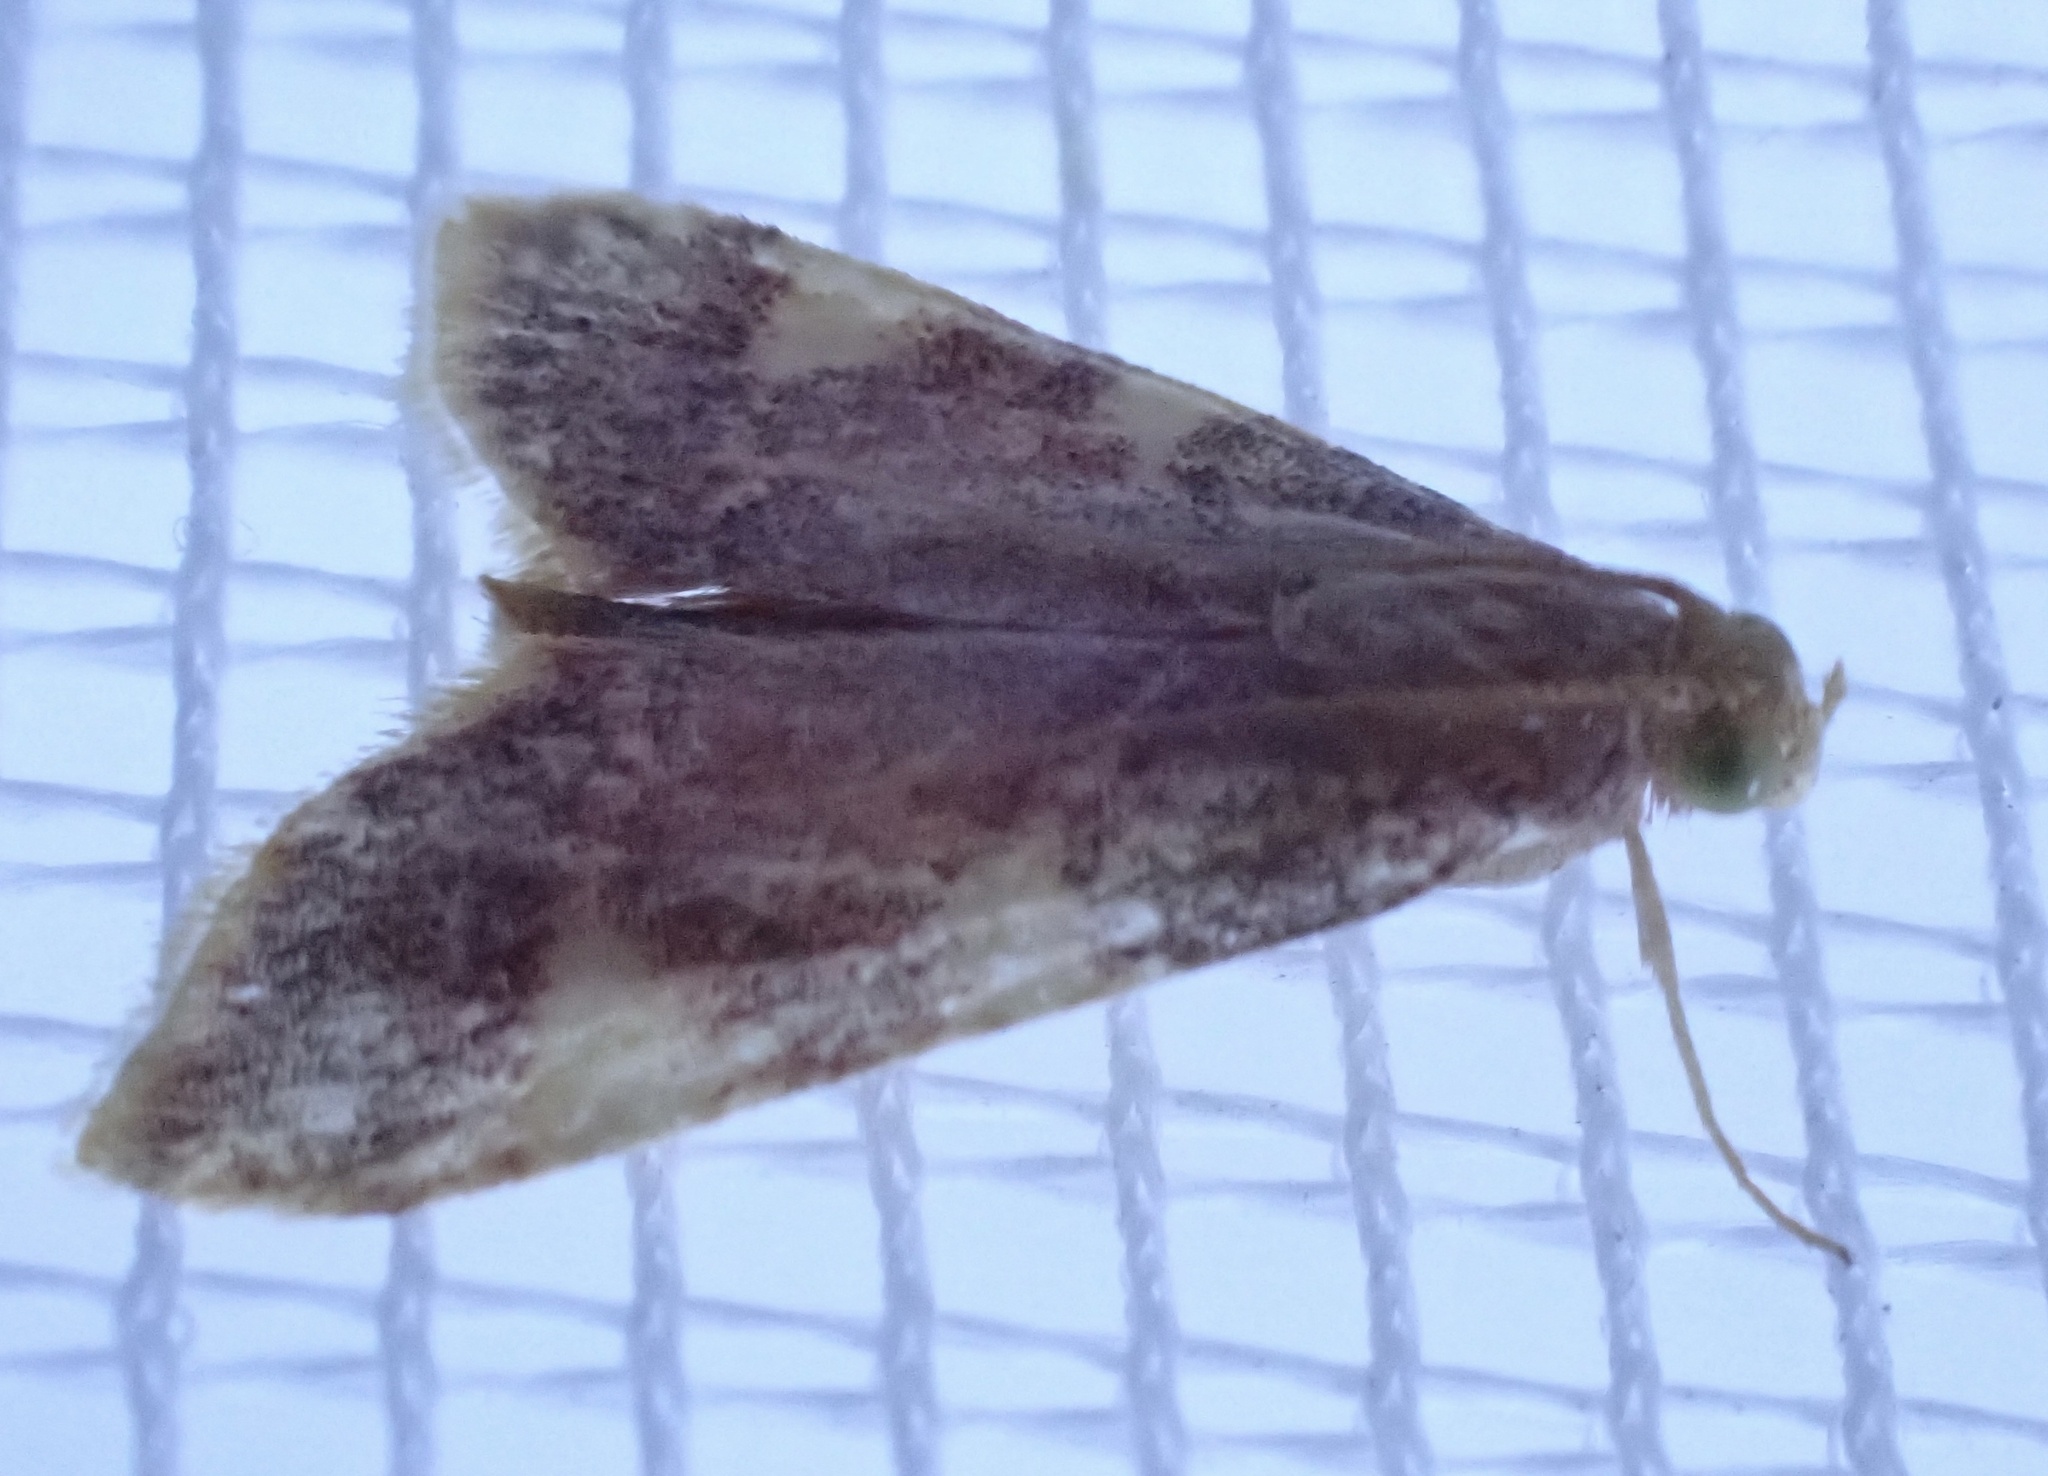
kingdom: Animalia
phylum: Arthropoda
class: Insecta
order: Lepidoptera
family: Pyralidae
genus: Hypsopygia
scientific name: Hypsopygia costalis
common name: Gold triangle
